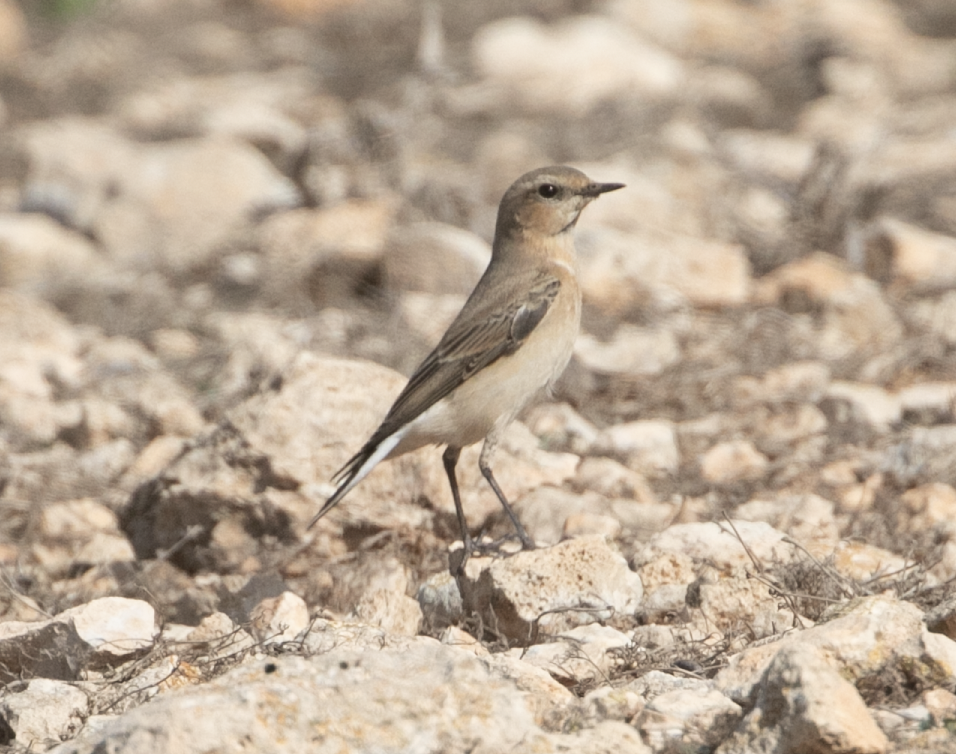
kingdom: Animalia
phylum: Chordata
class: Aves
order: Passeriformes
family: Muscicapidae
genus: Oenanthe
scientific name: Oenanthe oenanthe
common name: Northern wheatear
